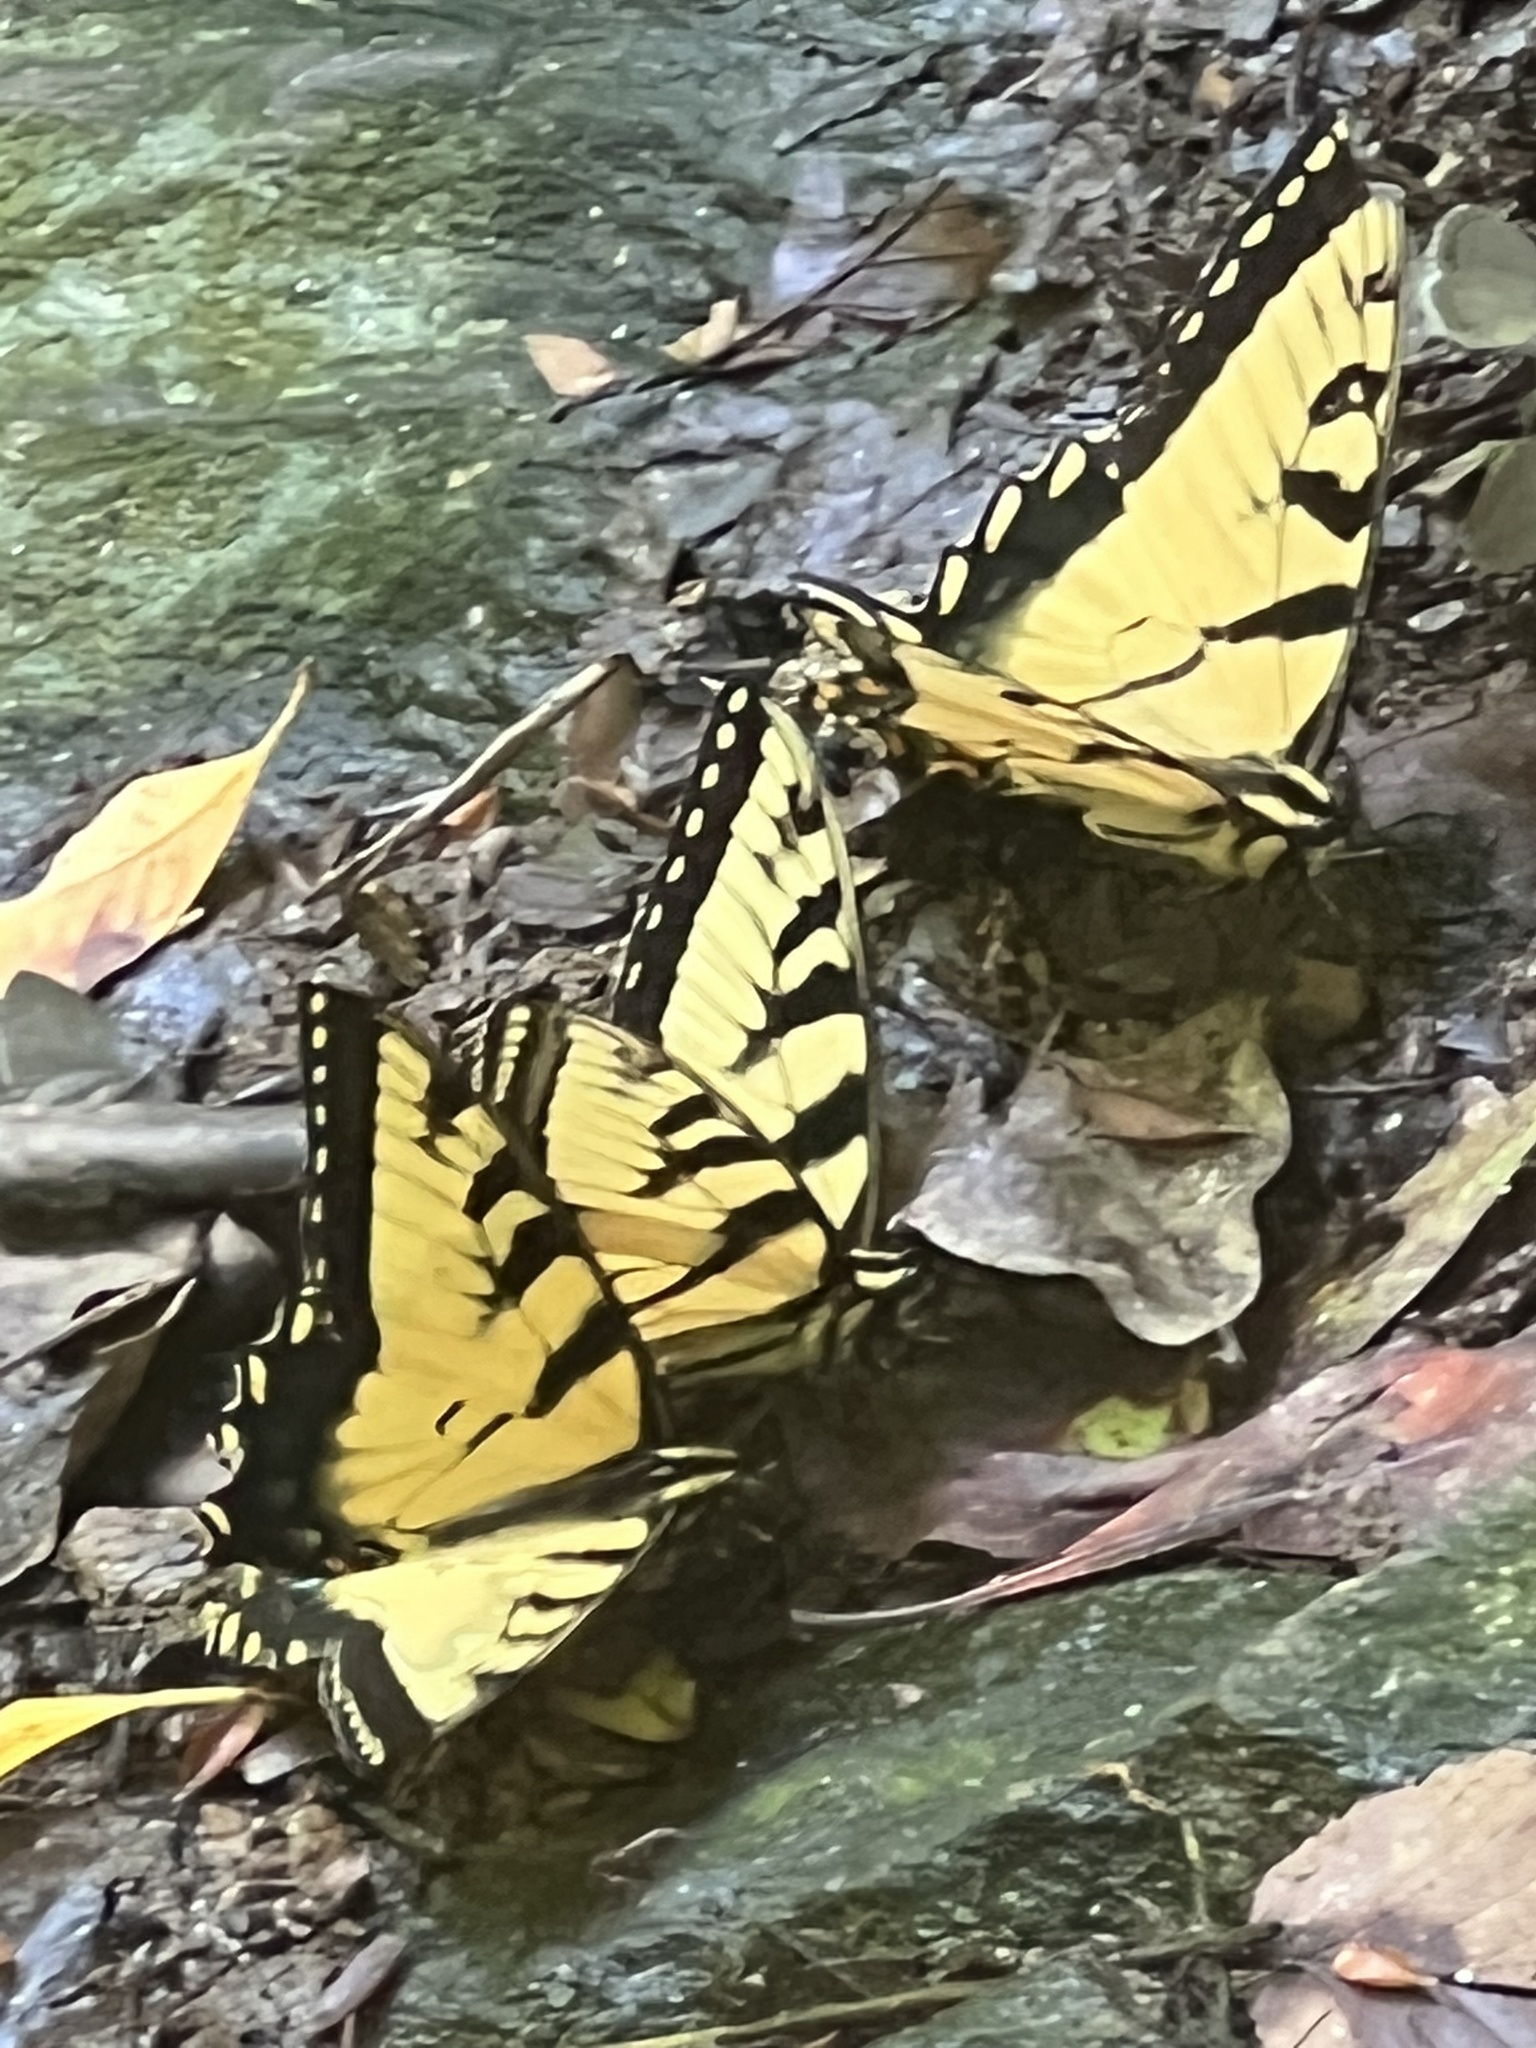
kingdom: Animalia
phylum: Arthropoda
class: Insecta
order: Lepidoptera
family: Papilionidae
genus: Papilio
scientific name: Papilio glaucus
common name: Tiger swallowtail
